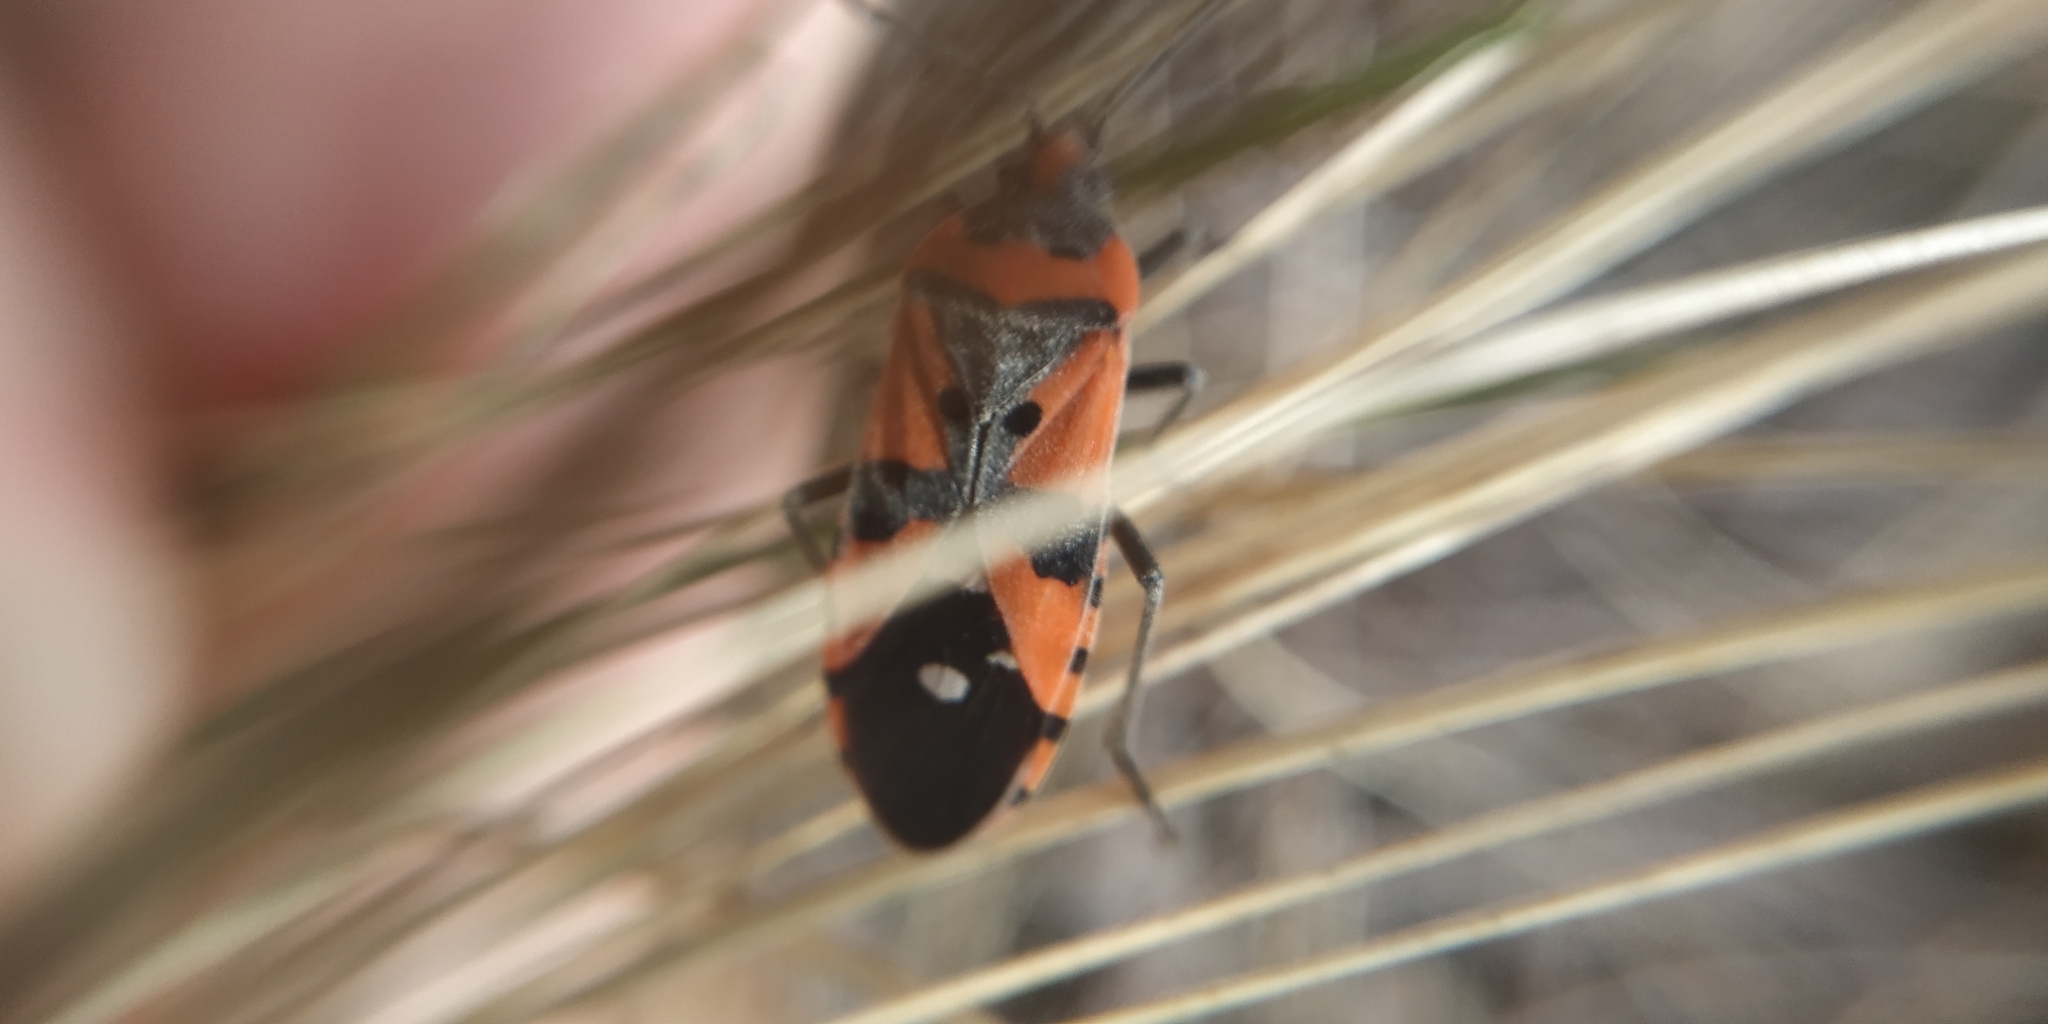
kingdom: Animalia
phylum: Arthropoda
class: Insecta
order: Hemiptera
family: Lygaeidae
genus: Lygaeus
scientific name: Lygaeus equestris
